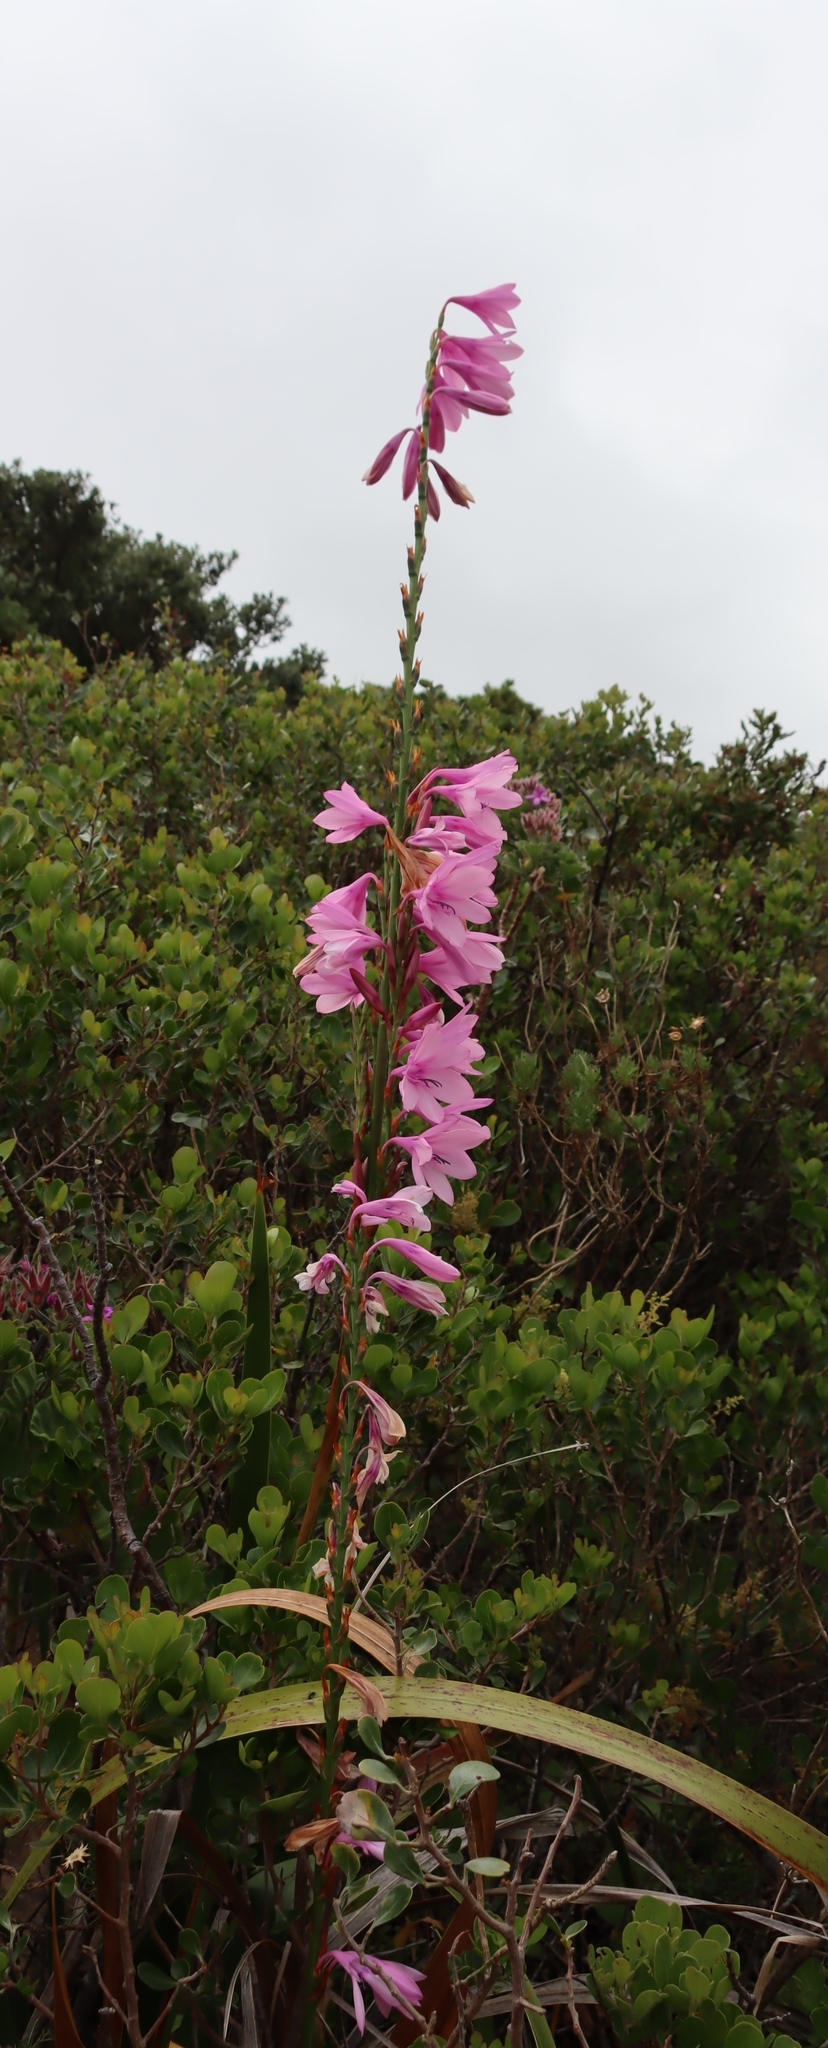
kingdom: Plantae
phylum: Tracheophyta
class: Liliopsida
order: Asparagales
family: Iridaceae
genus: Watsonia
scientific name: Watsonia borbonica
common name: Bugle-lily
